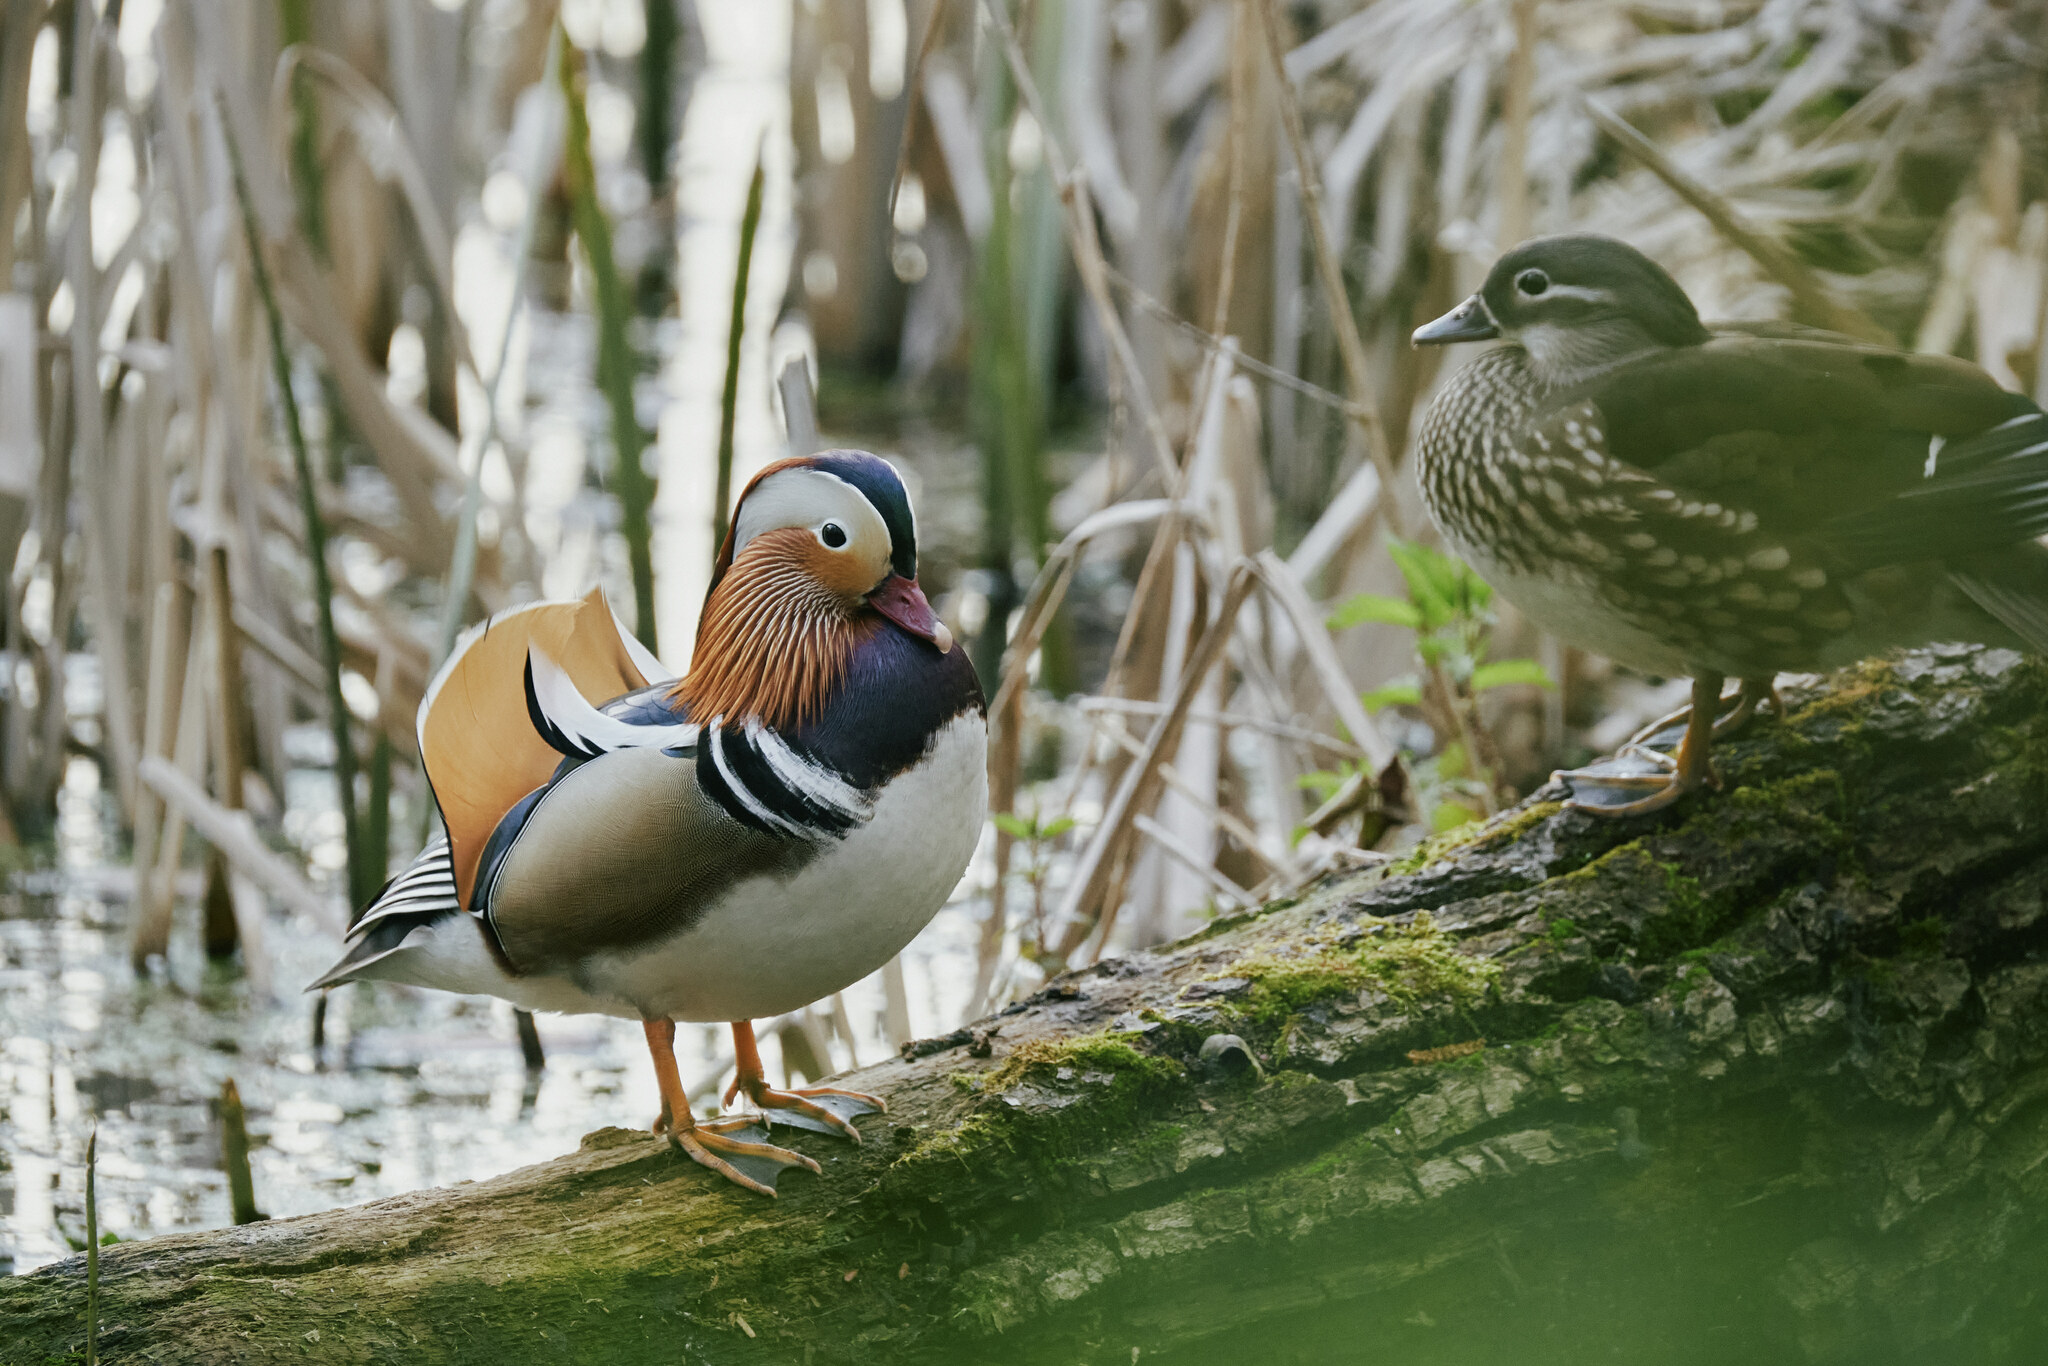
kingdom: Animalia
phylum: Chordata
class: Aves
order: Anseriformes
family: Anatidae
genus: Aix
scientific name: Aix galericulata
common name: Mandarin duck
